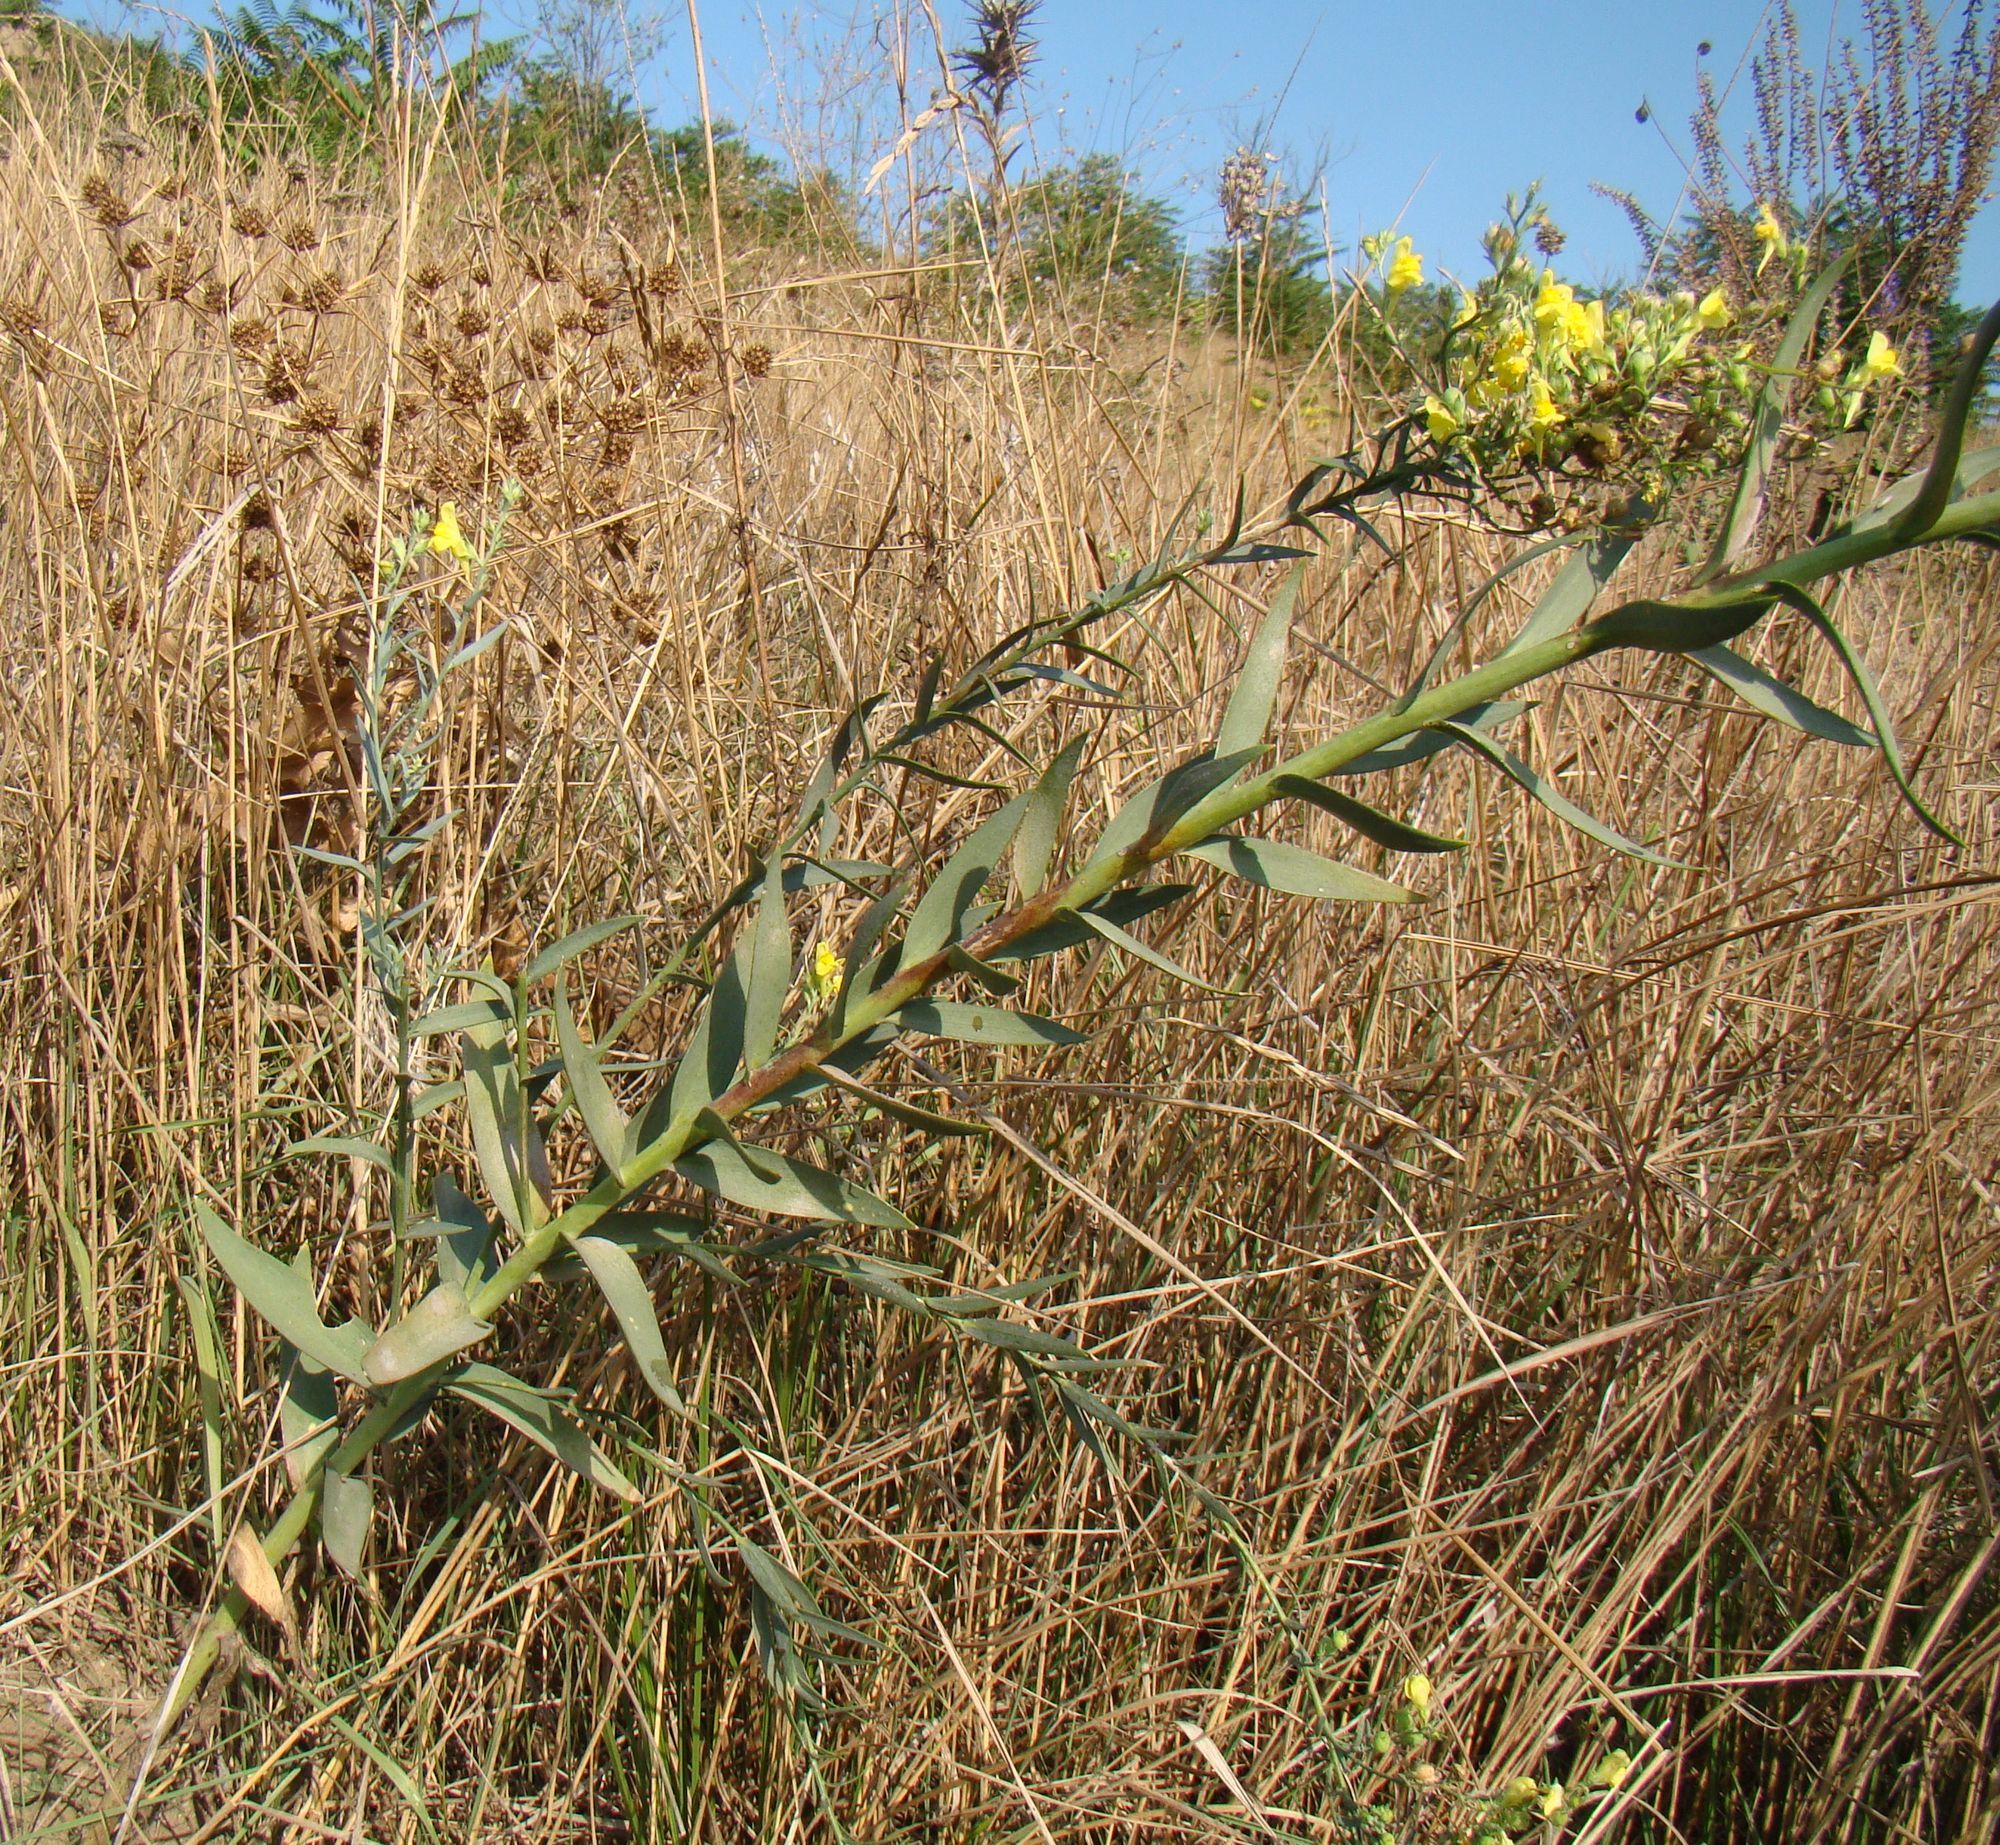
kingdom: Plantae
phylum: Tracheophyta
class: Magnoliopsida
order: Lamiales
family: Plantaginaceae
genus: Linaria
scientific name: Linaria genistifolia
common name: Broomleaf toadflax
